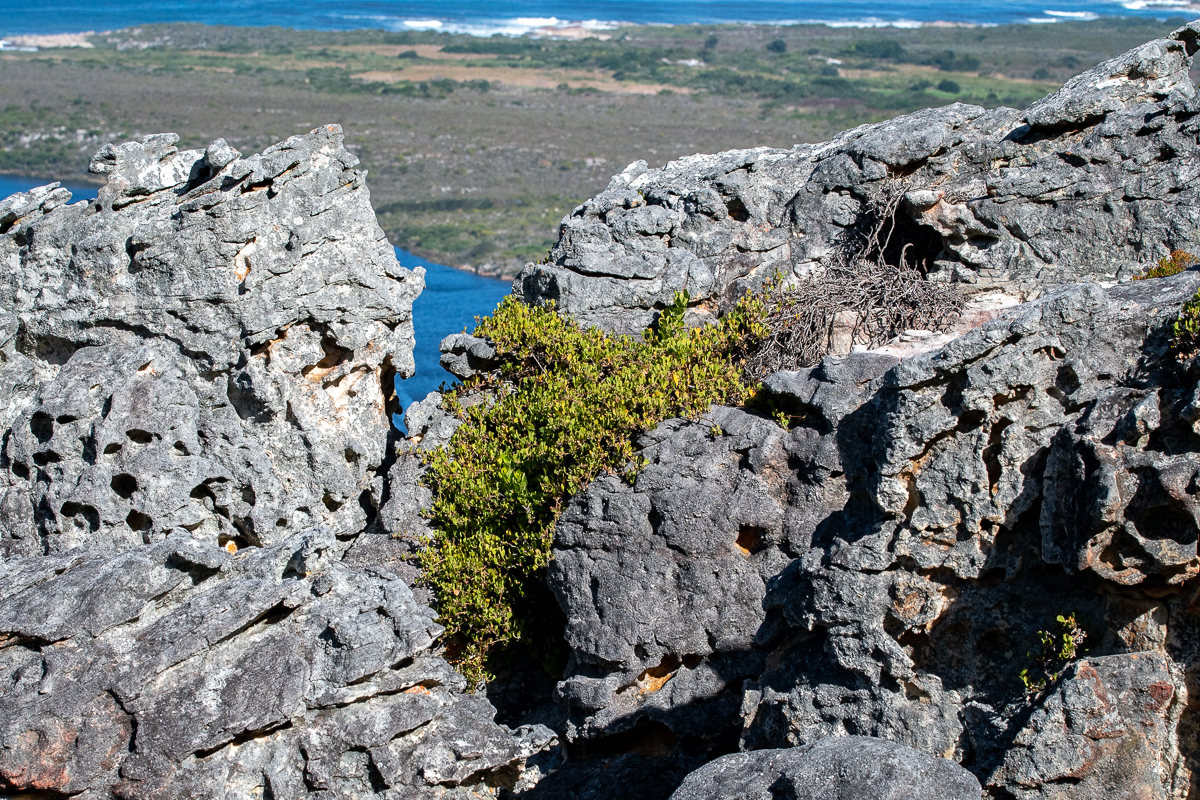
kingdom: Plantae
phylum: Tracheophyta
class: Magnoliopsida
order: Apiales
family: Apiaceae
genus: Centella
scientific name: Centella triloba
